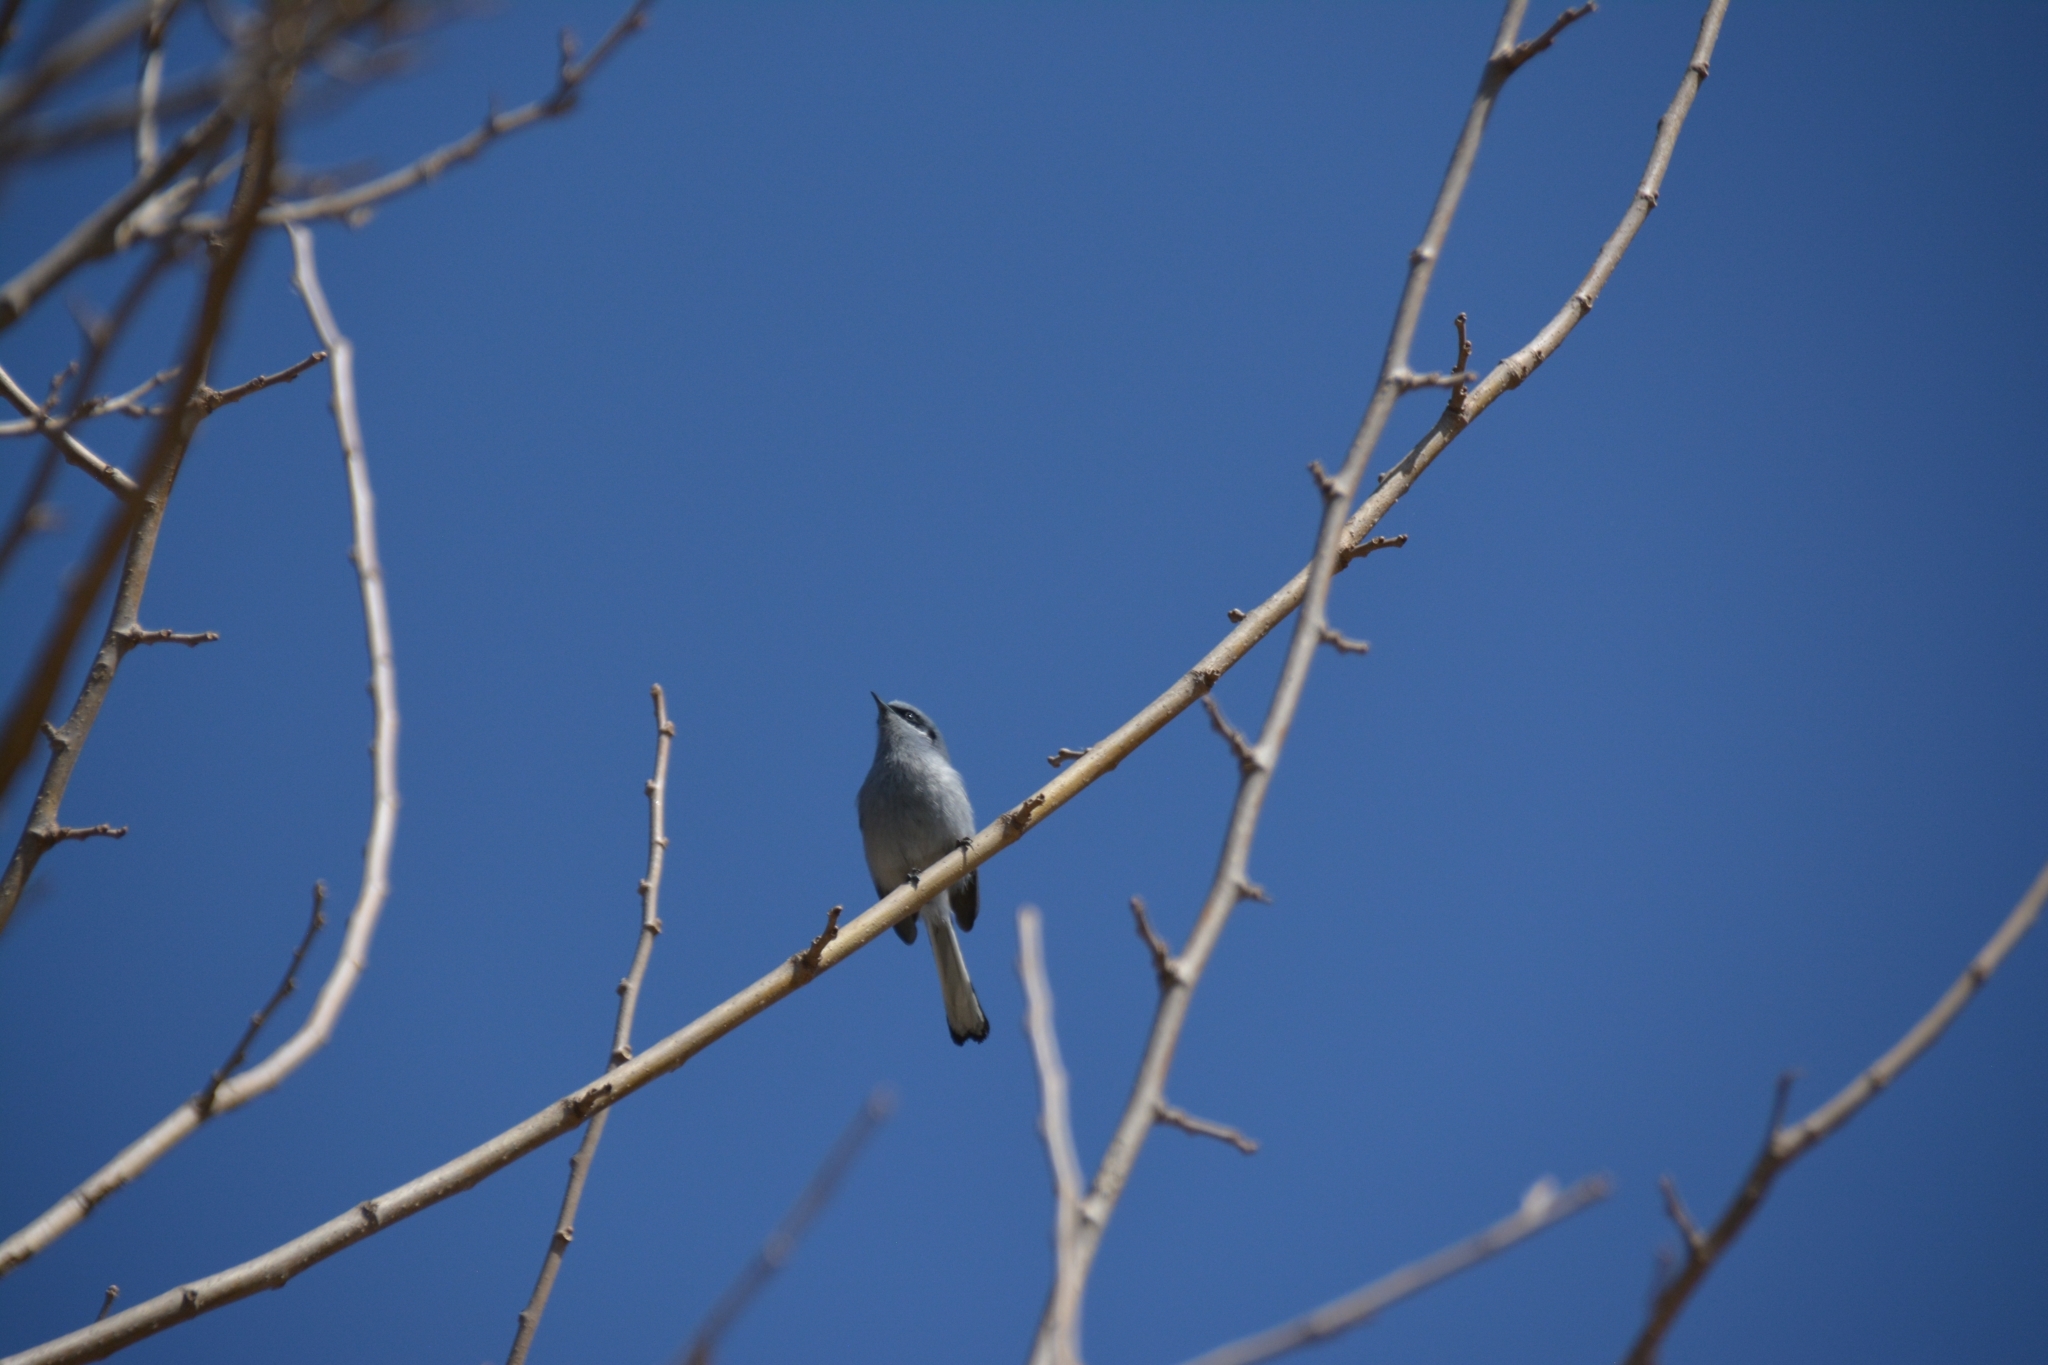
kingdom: Animalia
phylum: Chordata
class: Aves
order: Passeriformes
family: Polioptilidae
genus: Polioptila
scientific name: Polioptila dumicola
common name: Masked gnatcatcher
